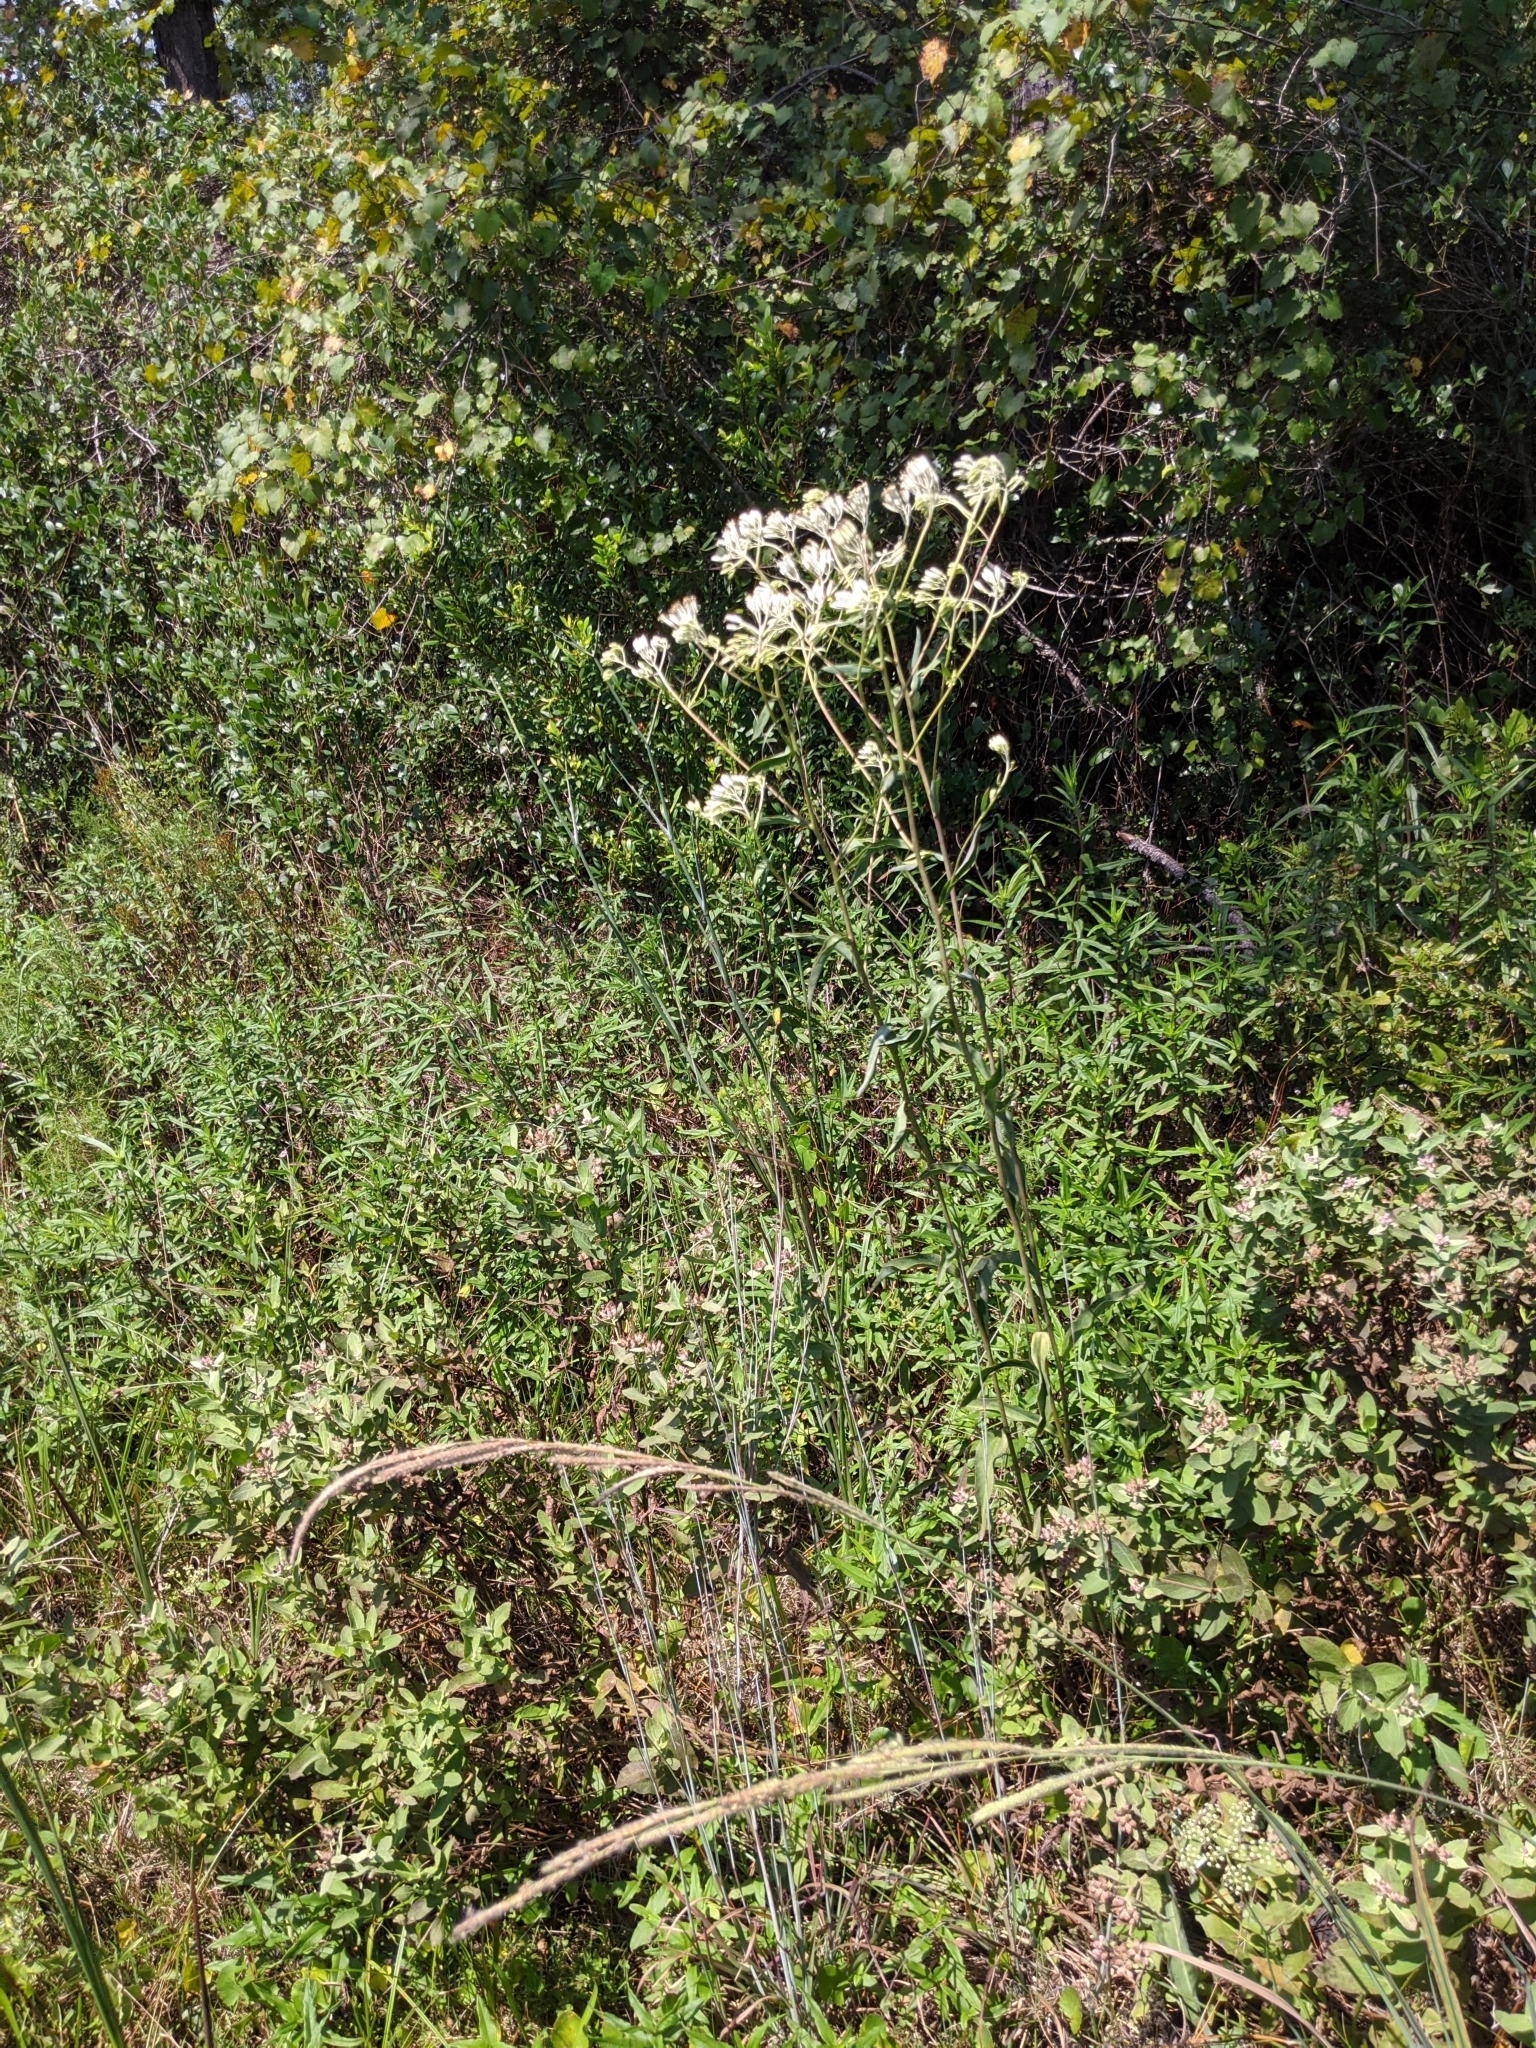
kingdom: Plantae
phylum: Tracheophyta
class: Magnoliopsida
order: Asterales
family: Asteraceae
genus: Arnoglossum
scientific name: Arnoglossum ovatum
